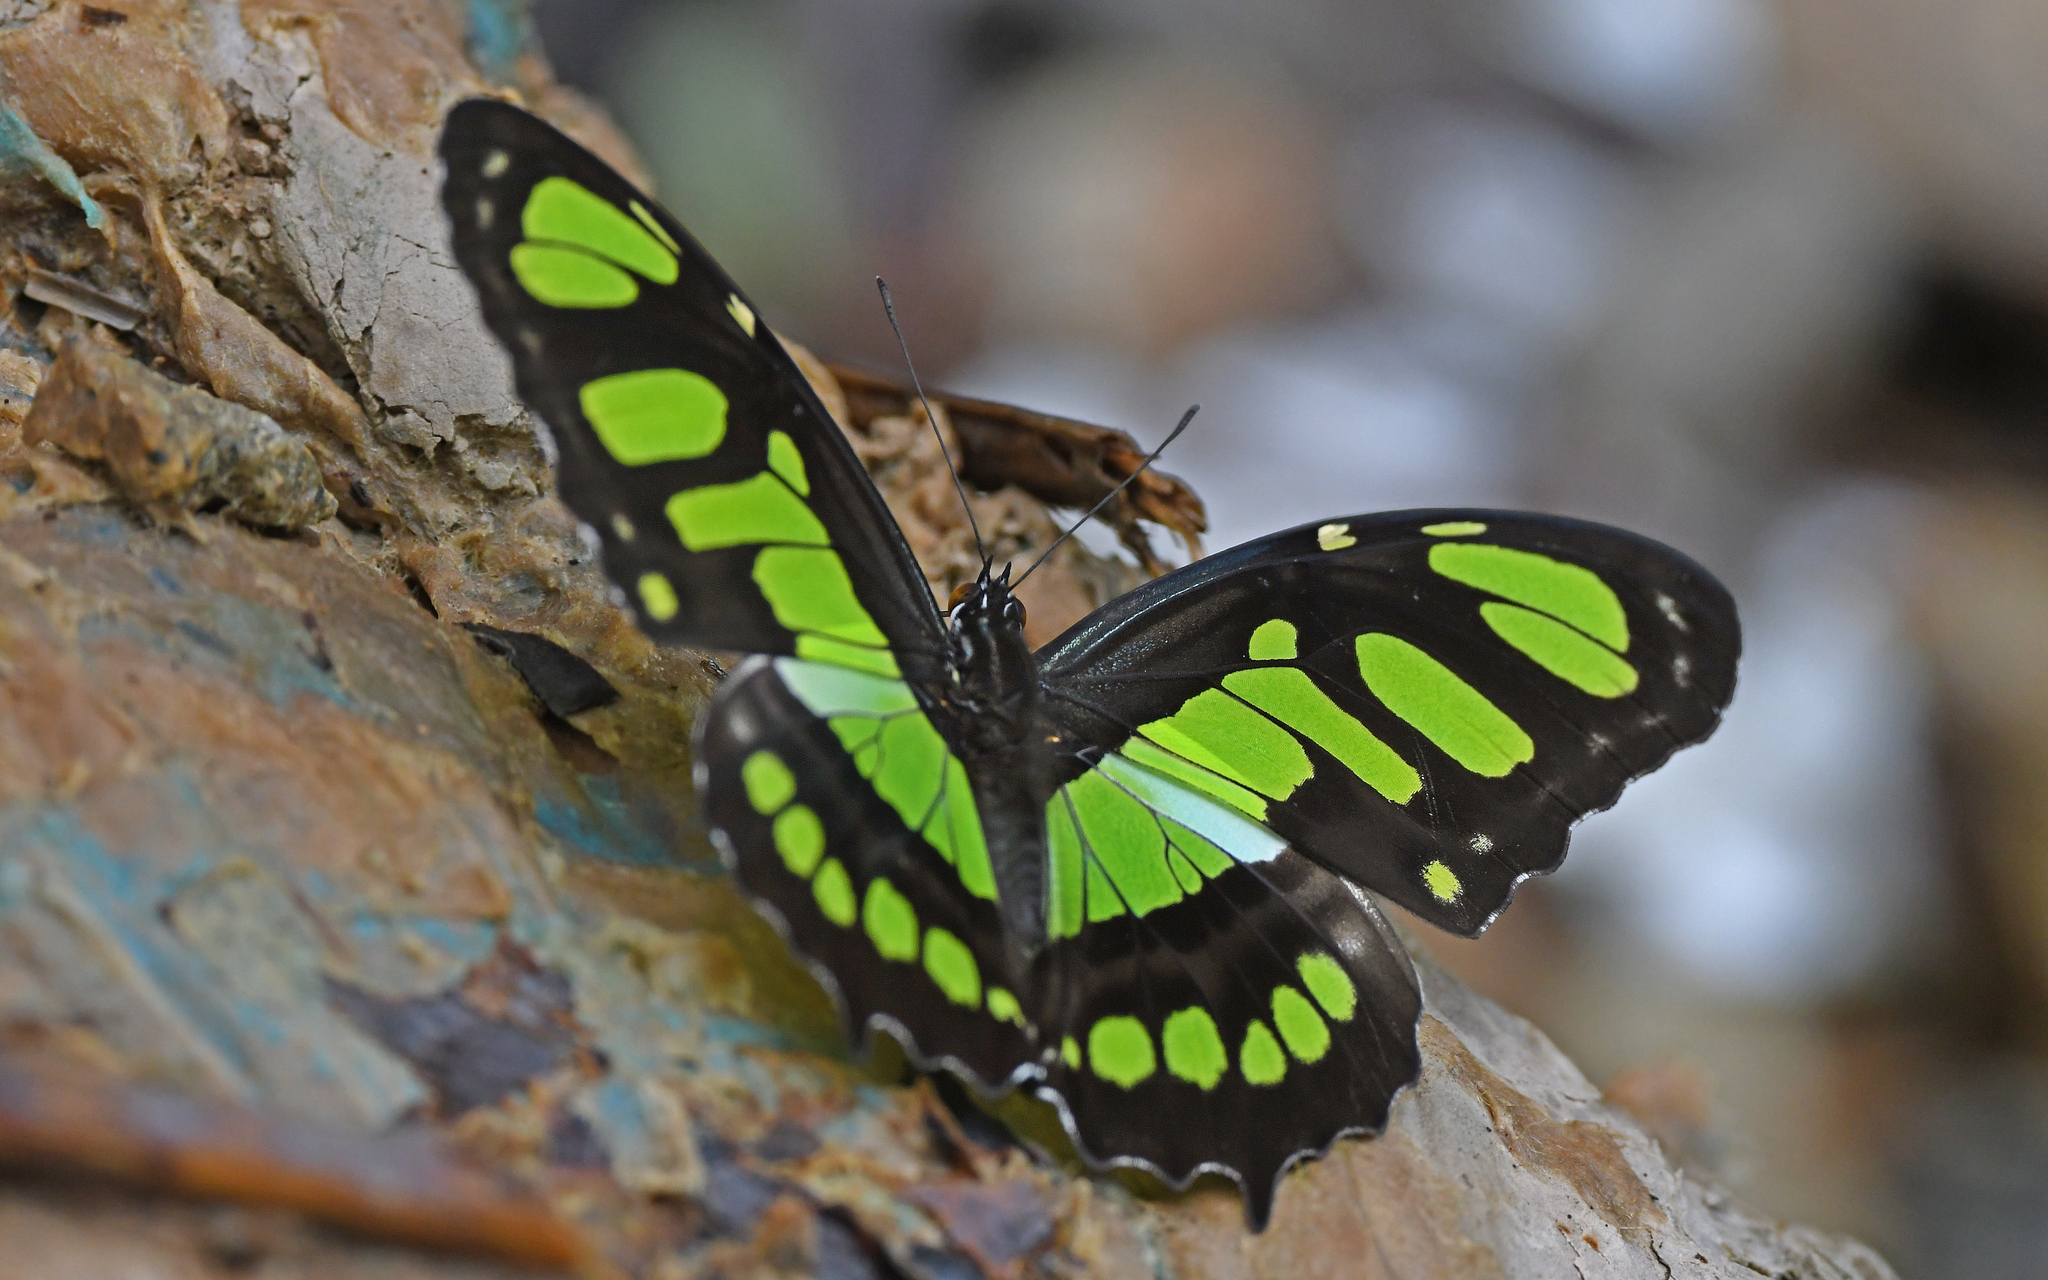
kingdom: Animalia
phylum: Arthropoda
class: Insecta
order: Lepidoptera
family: Nymphalidae
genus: Siproeta
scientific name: Siproeta stelenes
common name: Malachite
